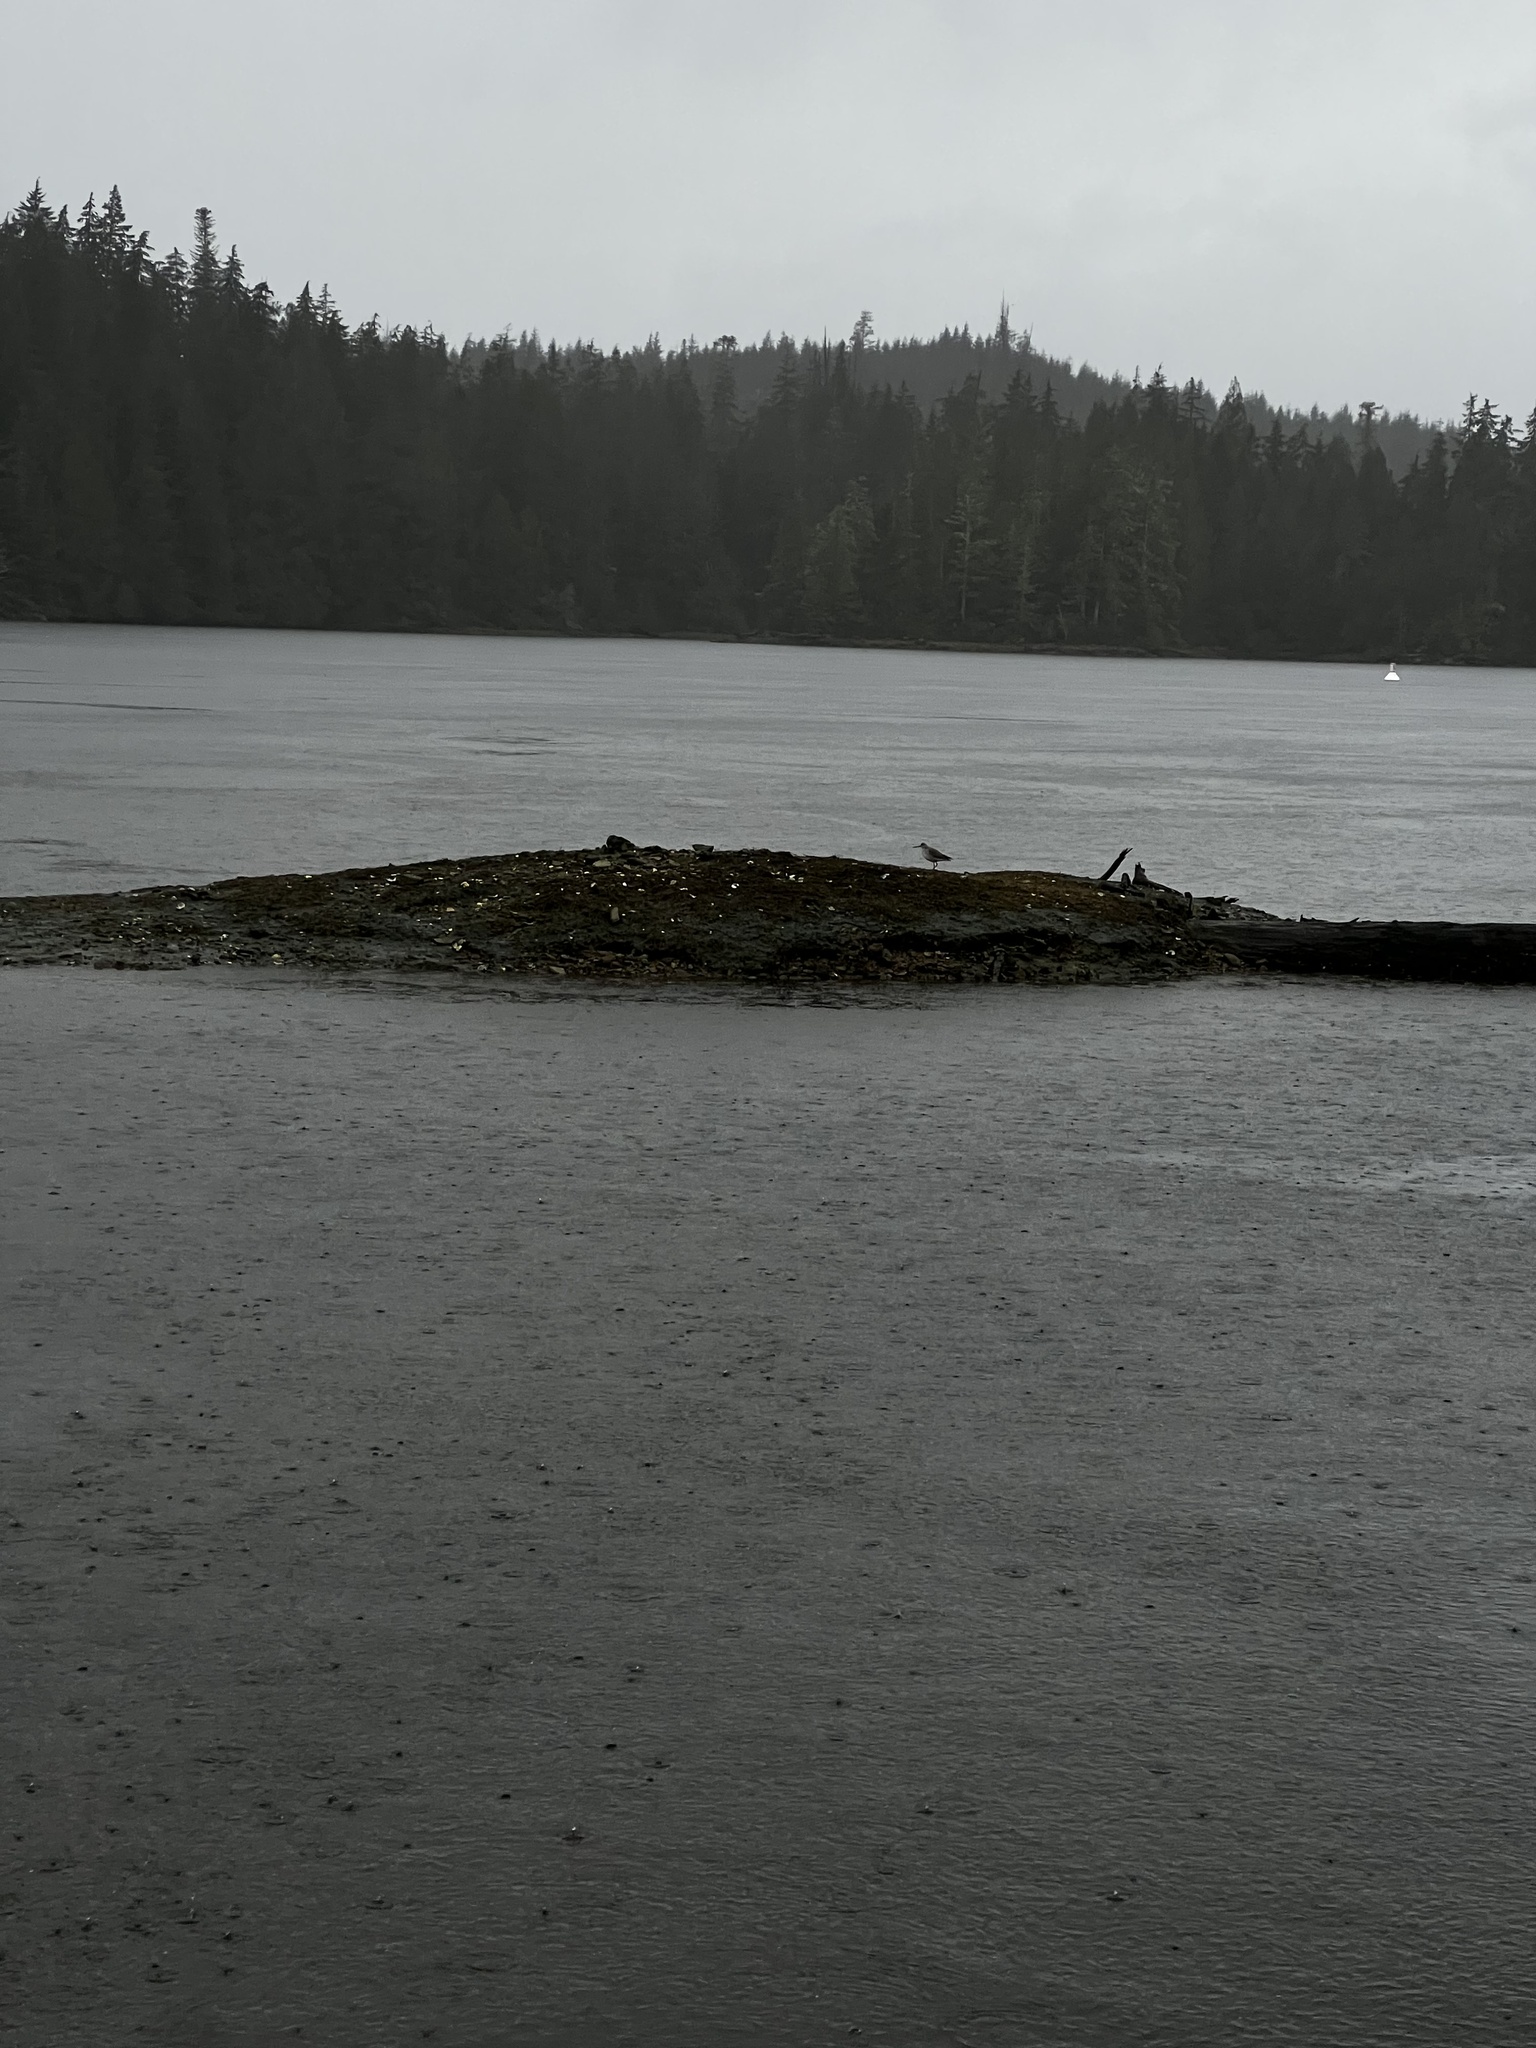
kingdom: Animalia
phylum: Chordata
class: Aves
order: Charadriiformes
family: Scolopacidae
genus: Tringa
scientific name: Tringa melanoleuca
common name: Greater yellowlegs
